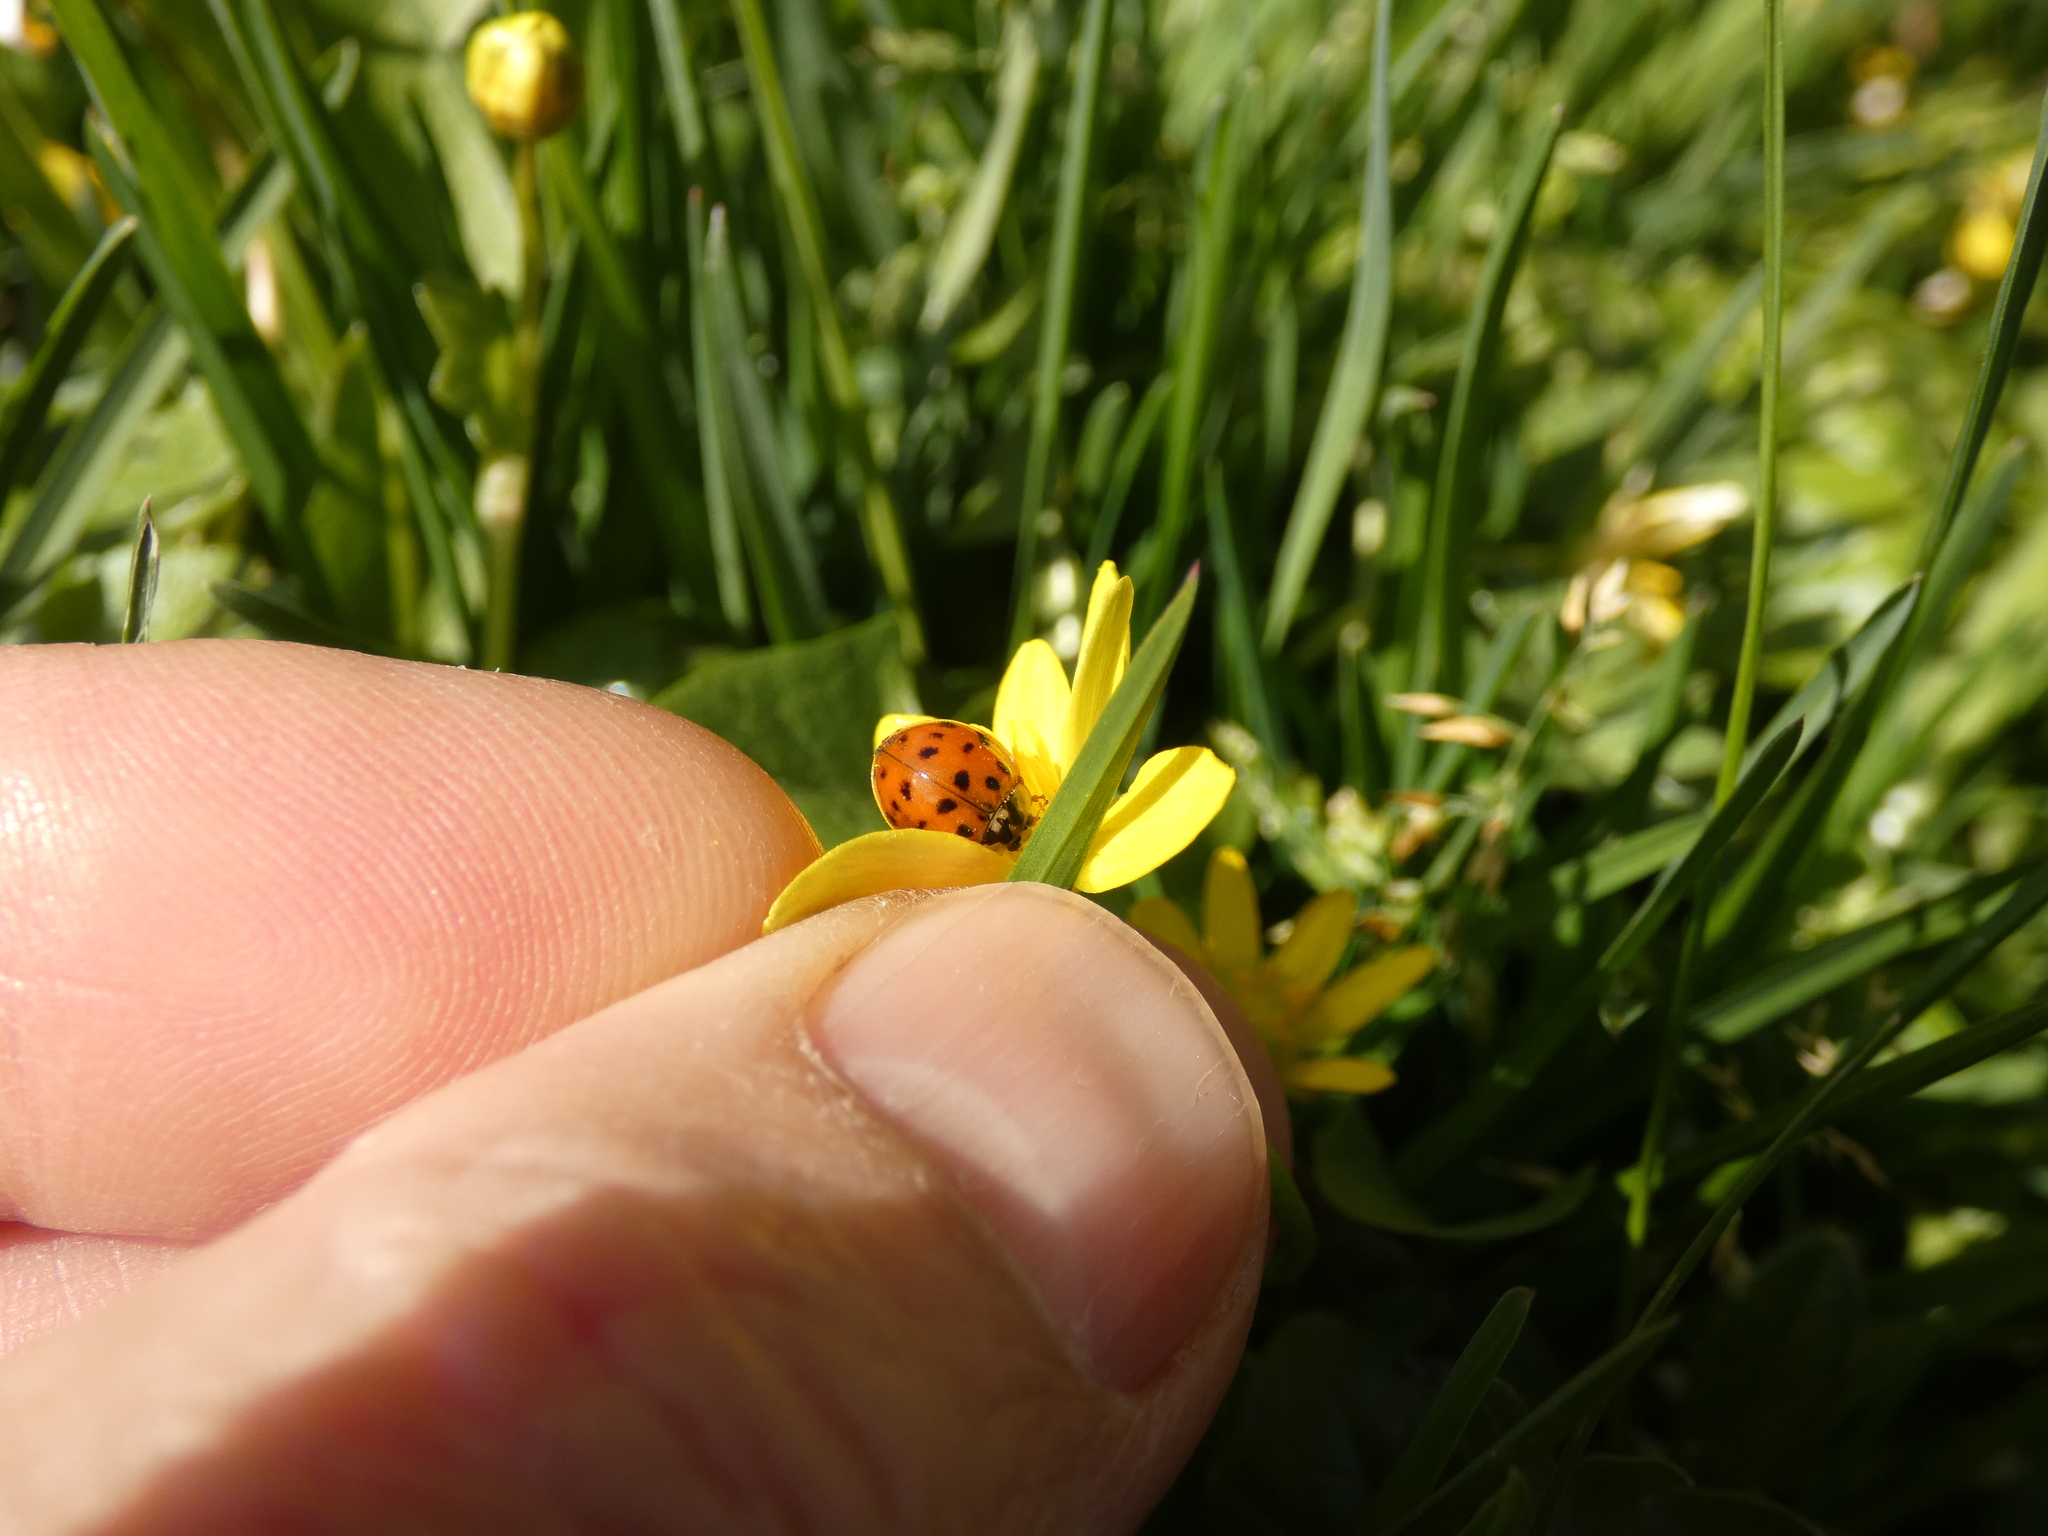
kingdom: Animalia
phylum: Arthropoda
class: Insecta
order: Coleoptera
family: Coccinellidae
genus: Harmonia
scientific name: Harmonia axyridis
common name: Harlequin ladybird
